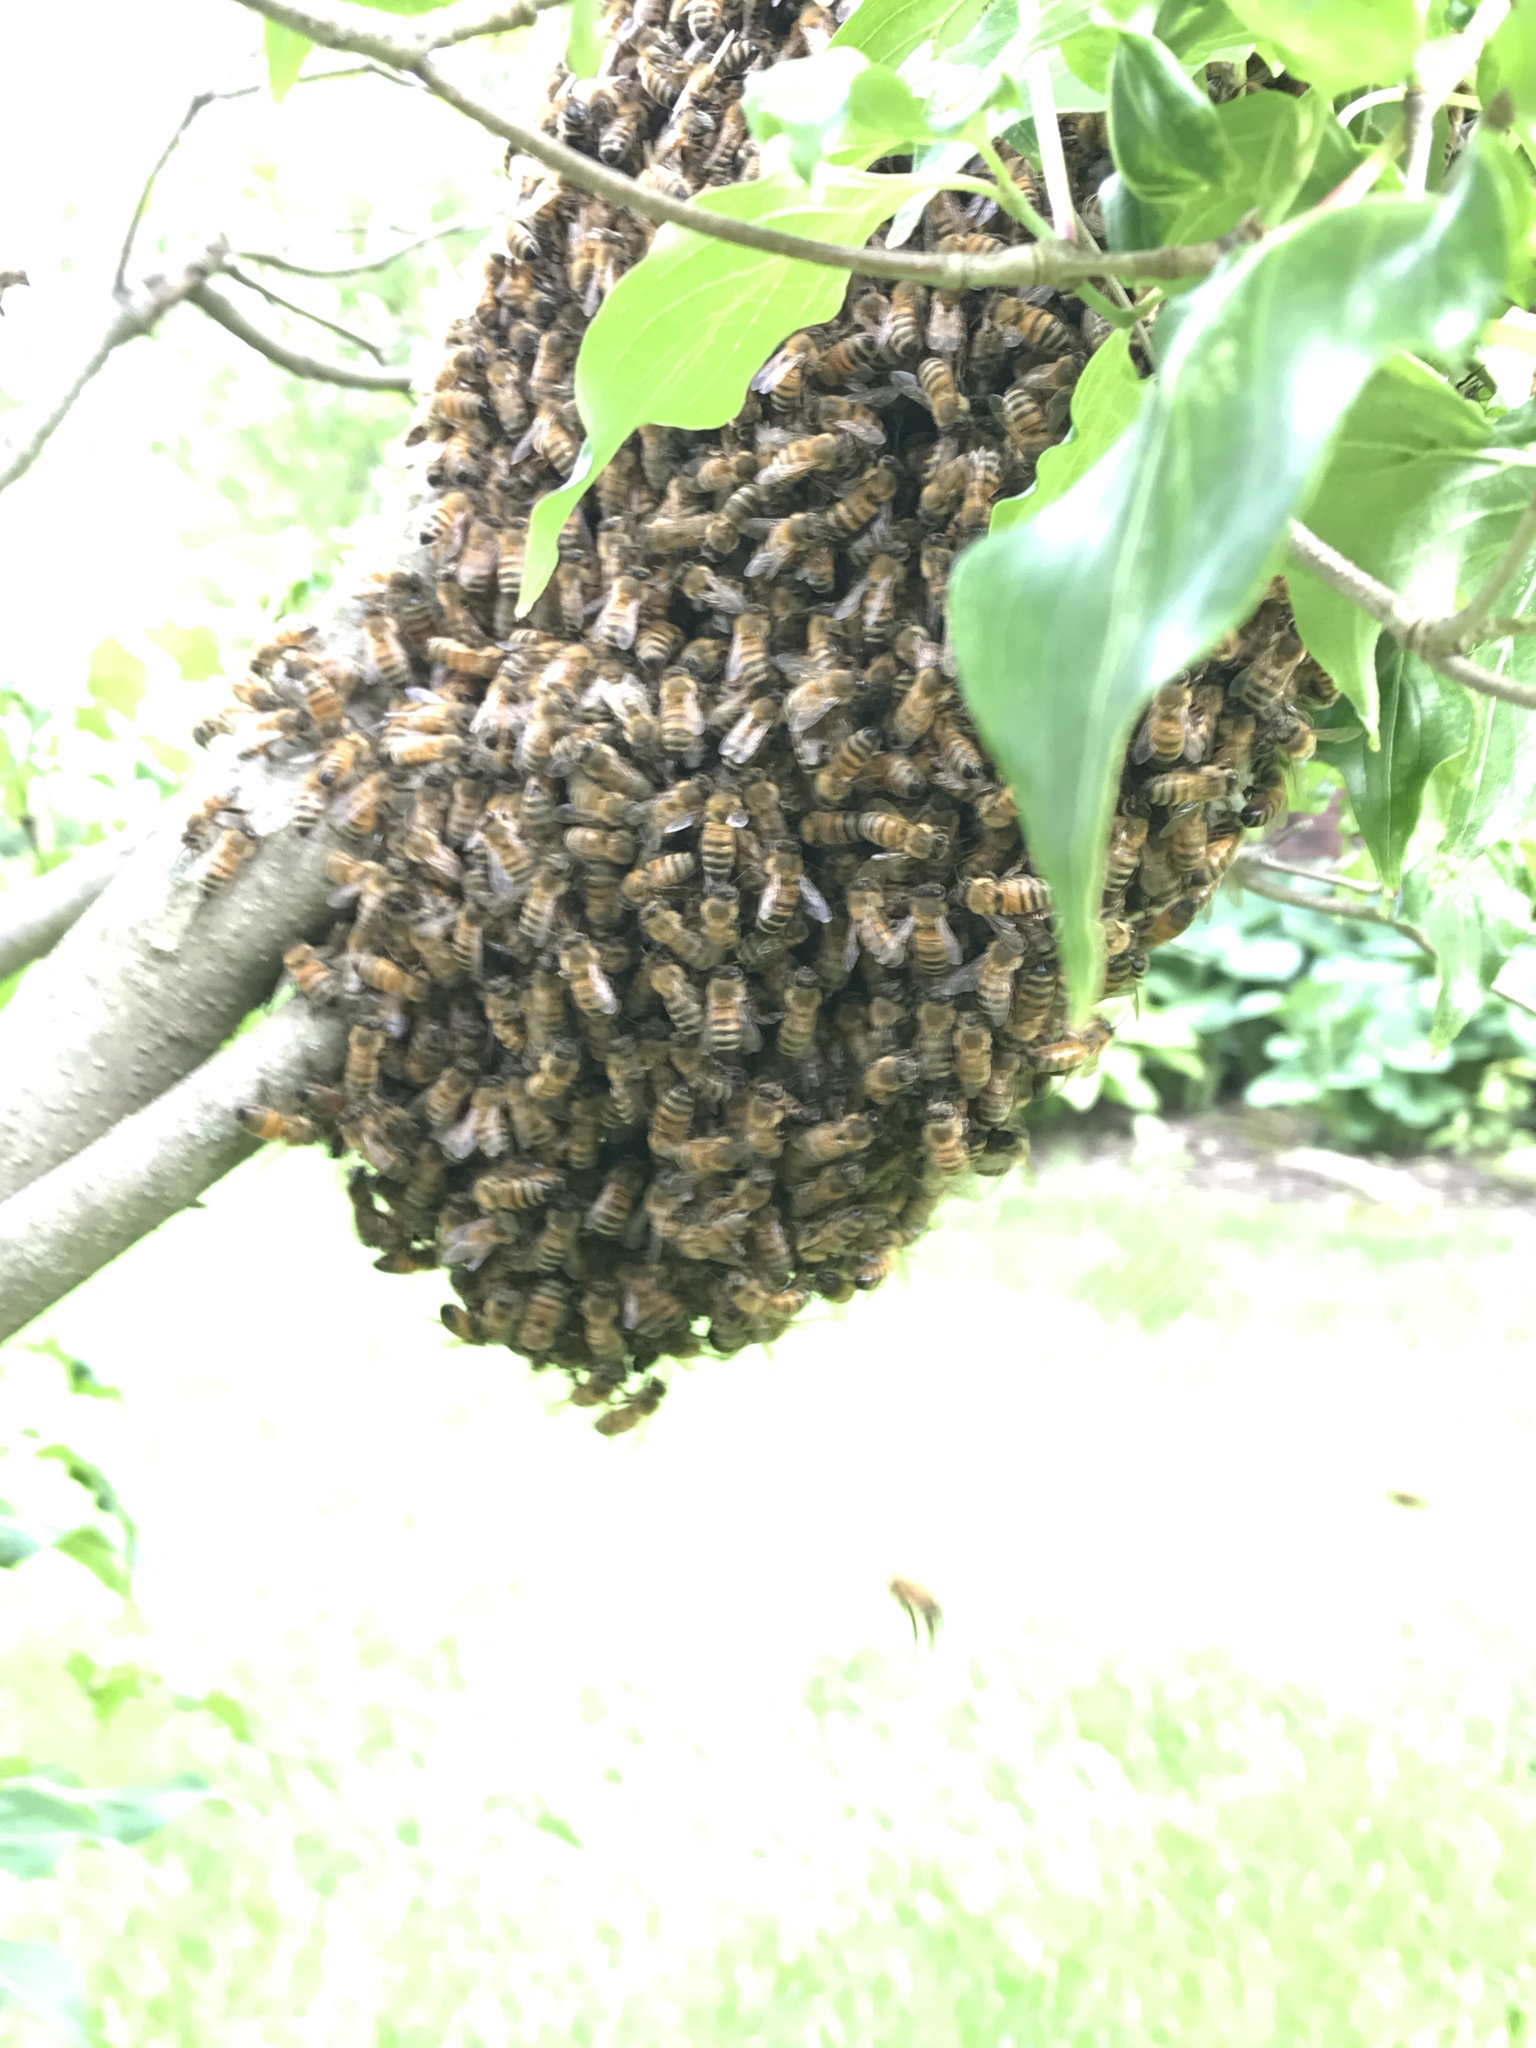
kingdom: Animalia
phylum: Arthropoda
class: Insecta
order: Hymenoptera
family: Apidae
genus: Apis
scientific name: Apis mellifera
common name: Honey bee
